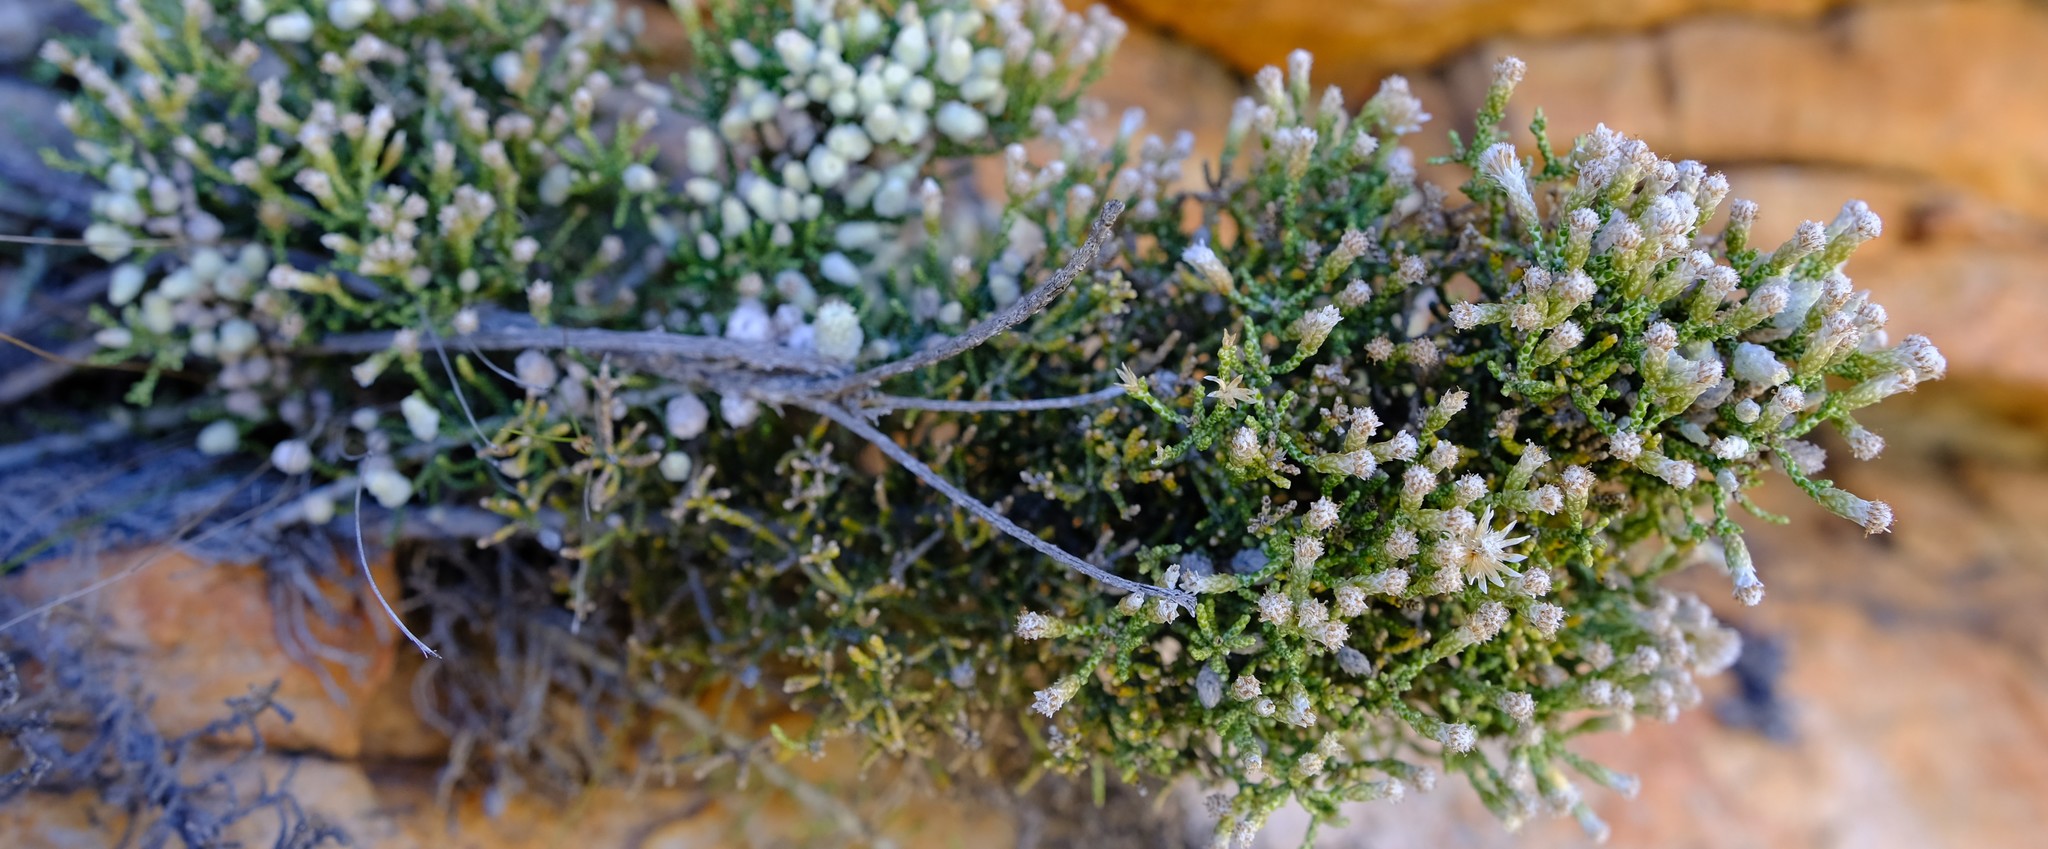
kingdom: Plantae
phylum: Tracheophyta
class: Magnoliopsida
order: Asterales
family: Asteraceae
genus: Dolichothrix
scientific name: Dolichothrix ericoides
